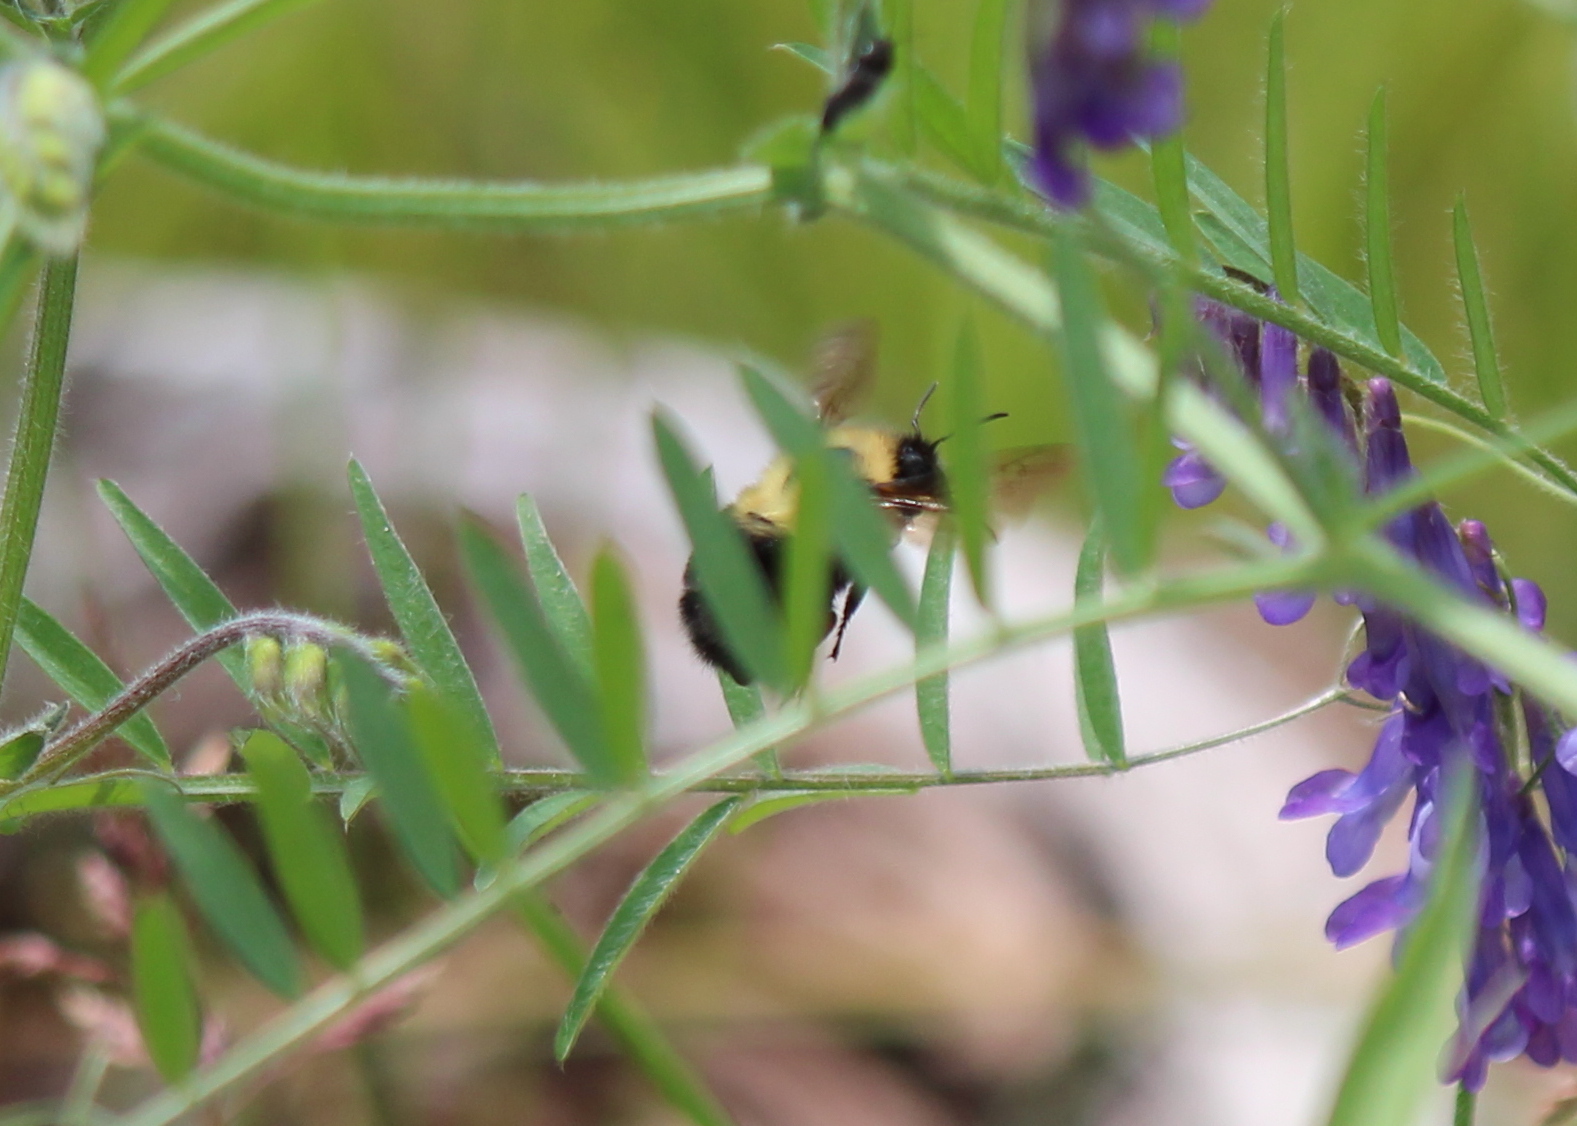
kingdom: Animalia
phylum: Arthropoda
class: Insecta
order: Hymenoptera
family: Apidae
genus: Bombus
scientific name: Bombus bimaculatus
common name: Two-spotted bumble bee
